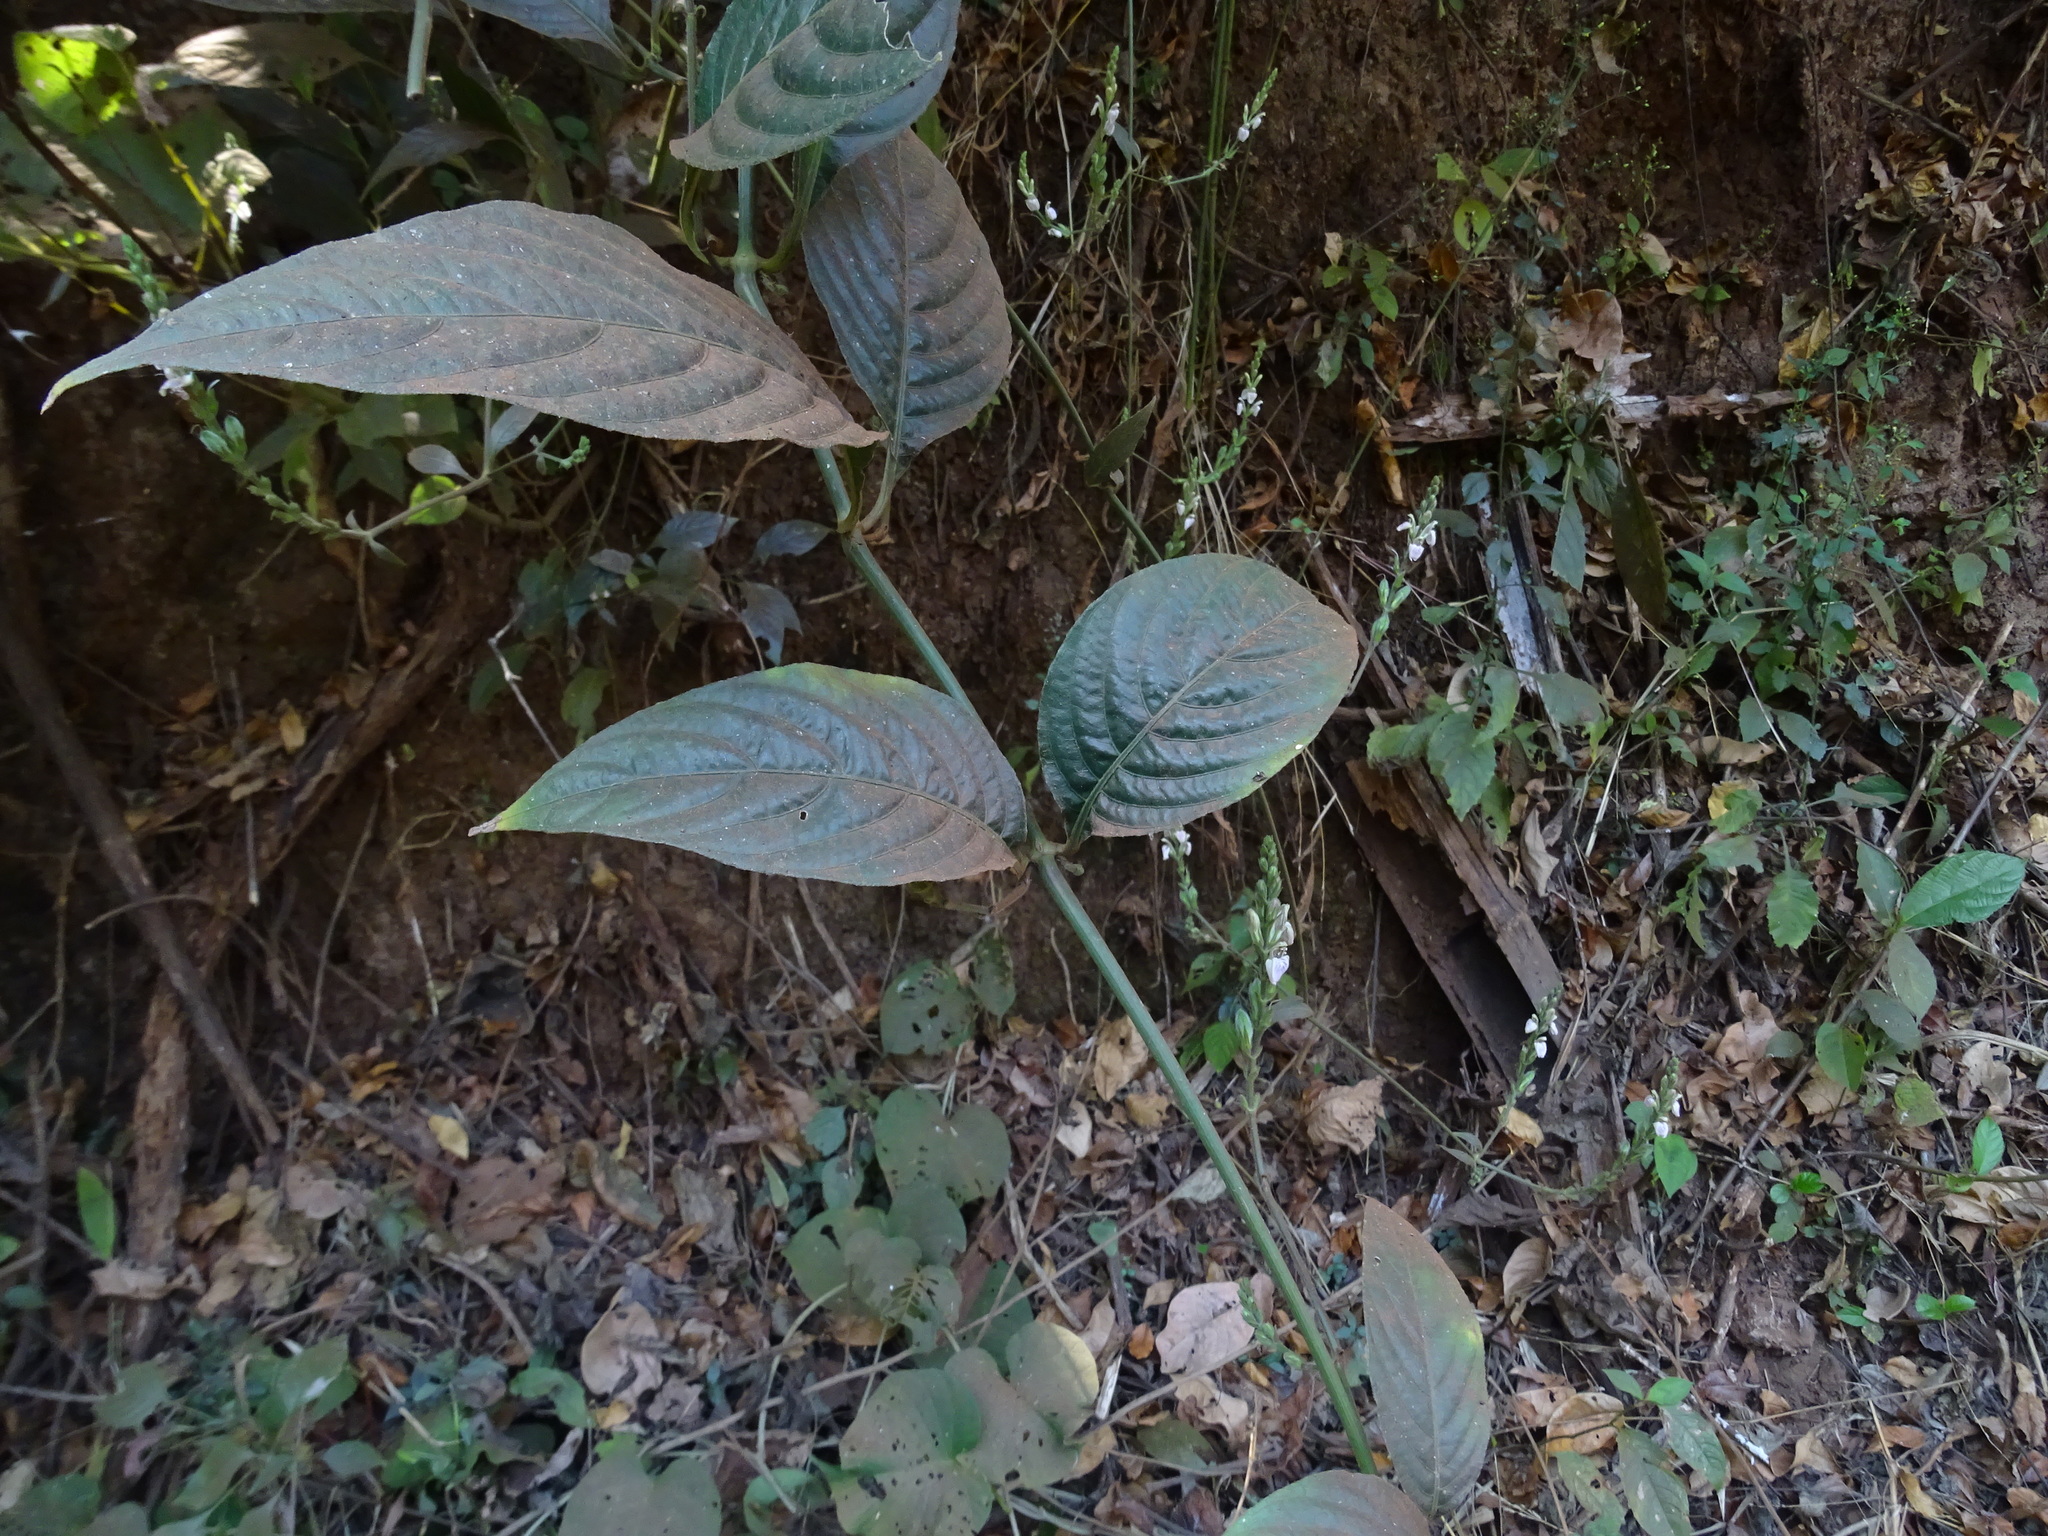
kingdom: Plantae
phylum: Tracheophyta
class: Magnoliopsida
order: Lamiales
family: Acanthaceae
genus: Justicia
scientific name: Justicia santapaui
